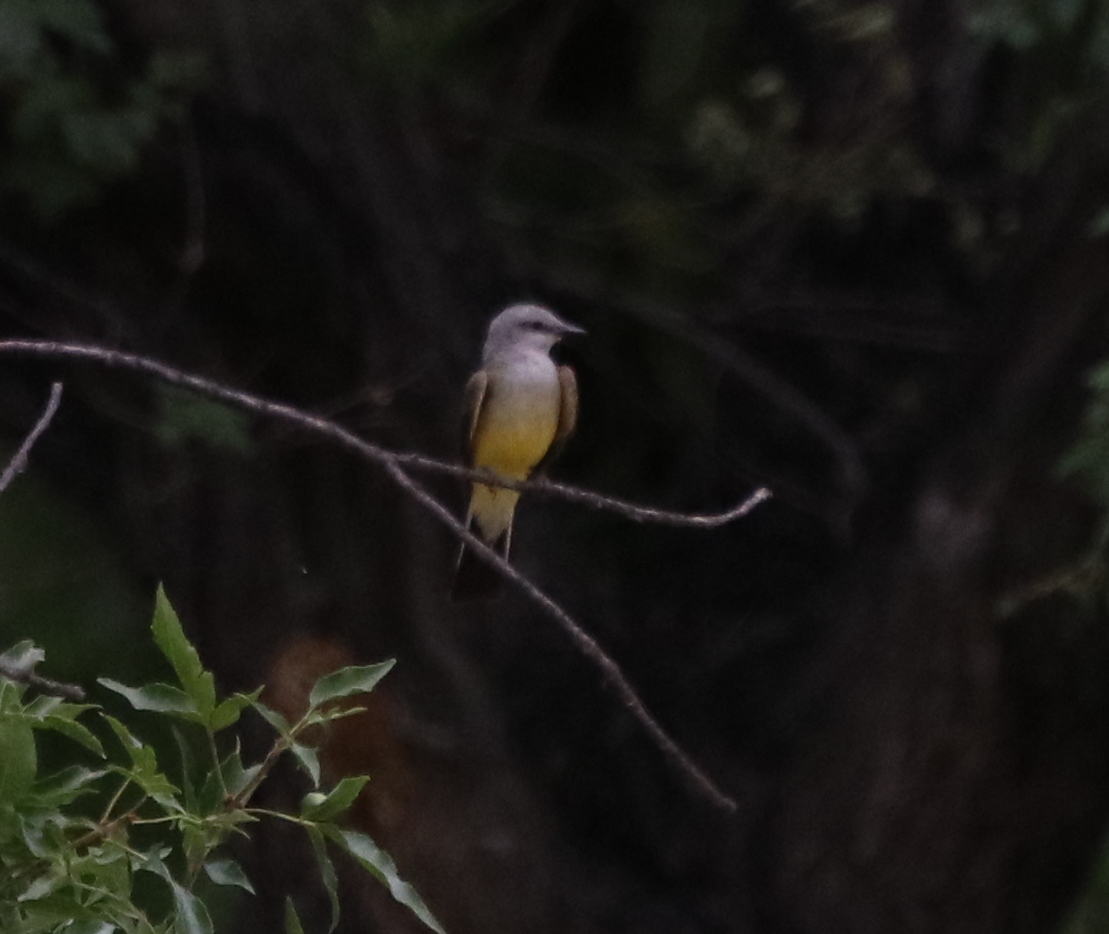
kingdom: Animalia
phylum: Chordata
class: Aves
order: Passeriformes
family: Tyrannidae
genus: Tyrannus
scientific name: Tyrannus verticalis
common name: Western kingbird
